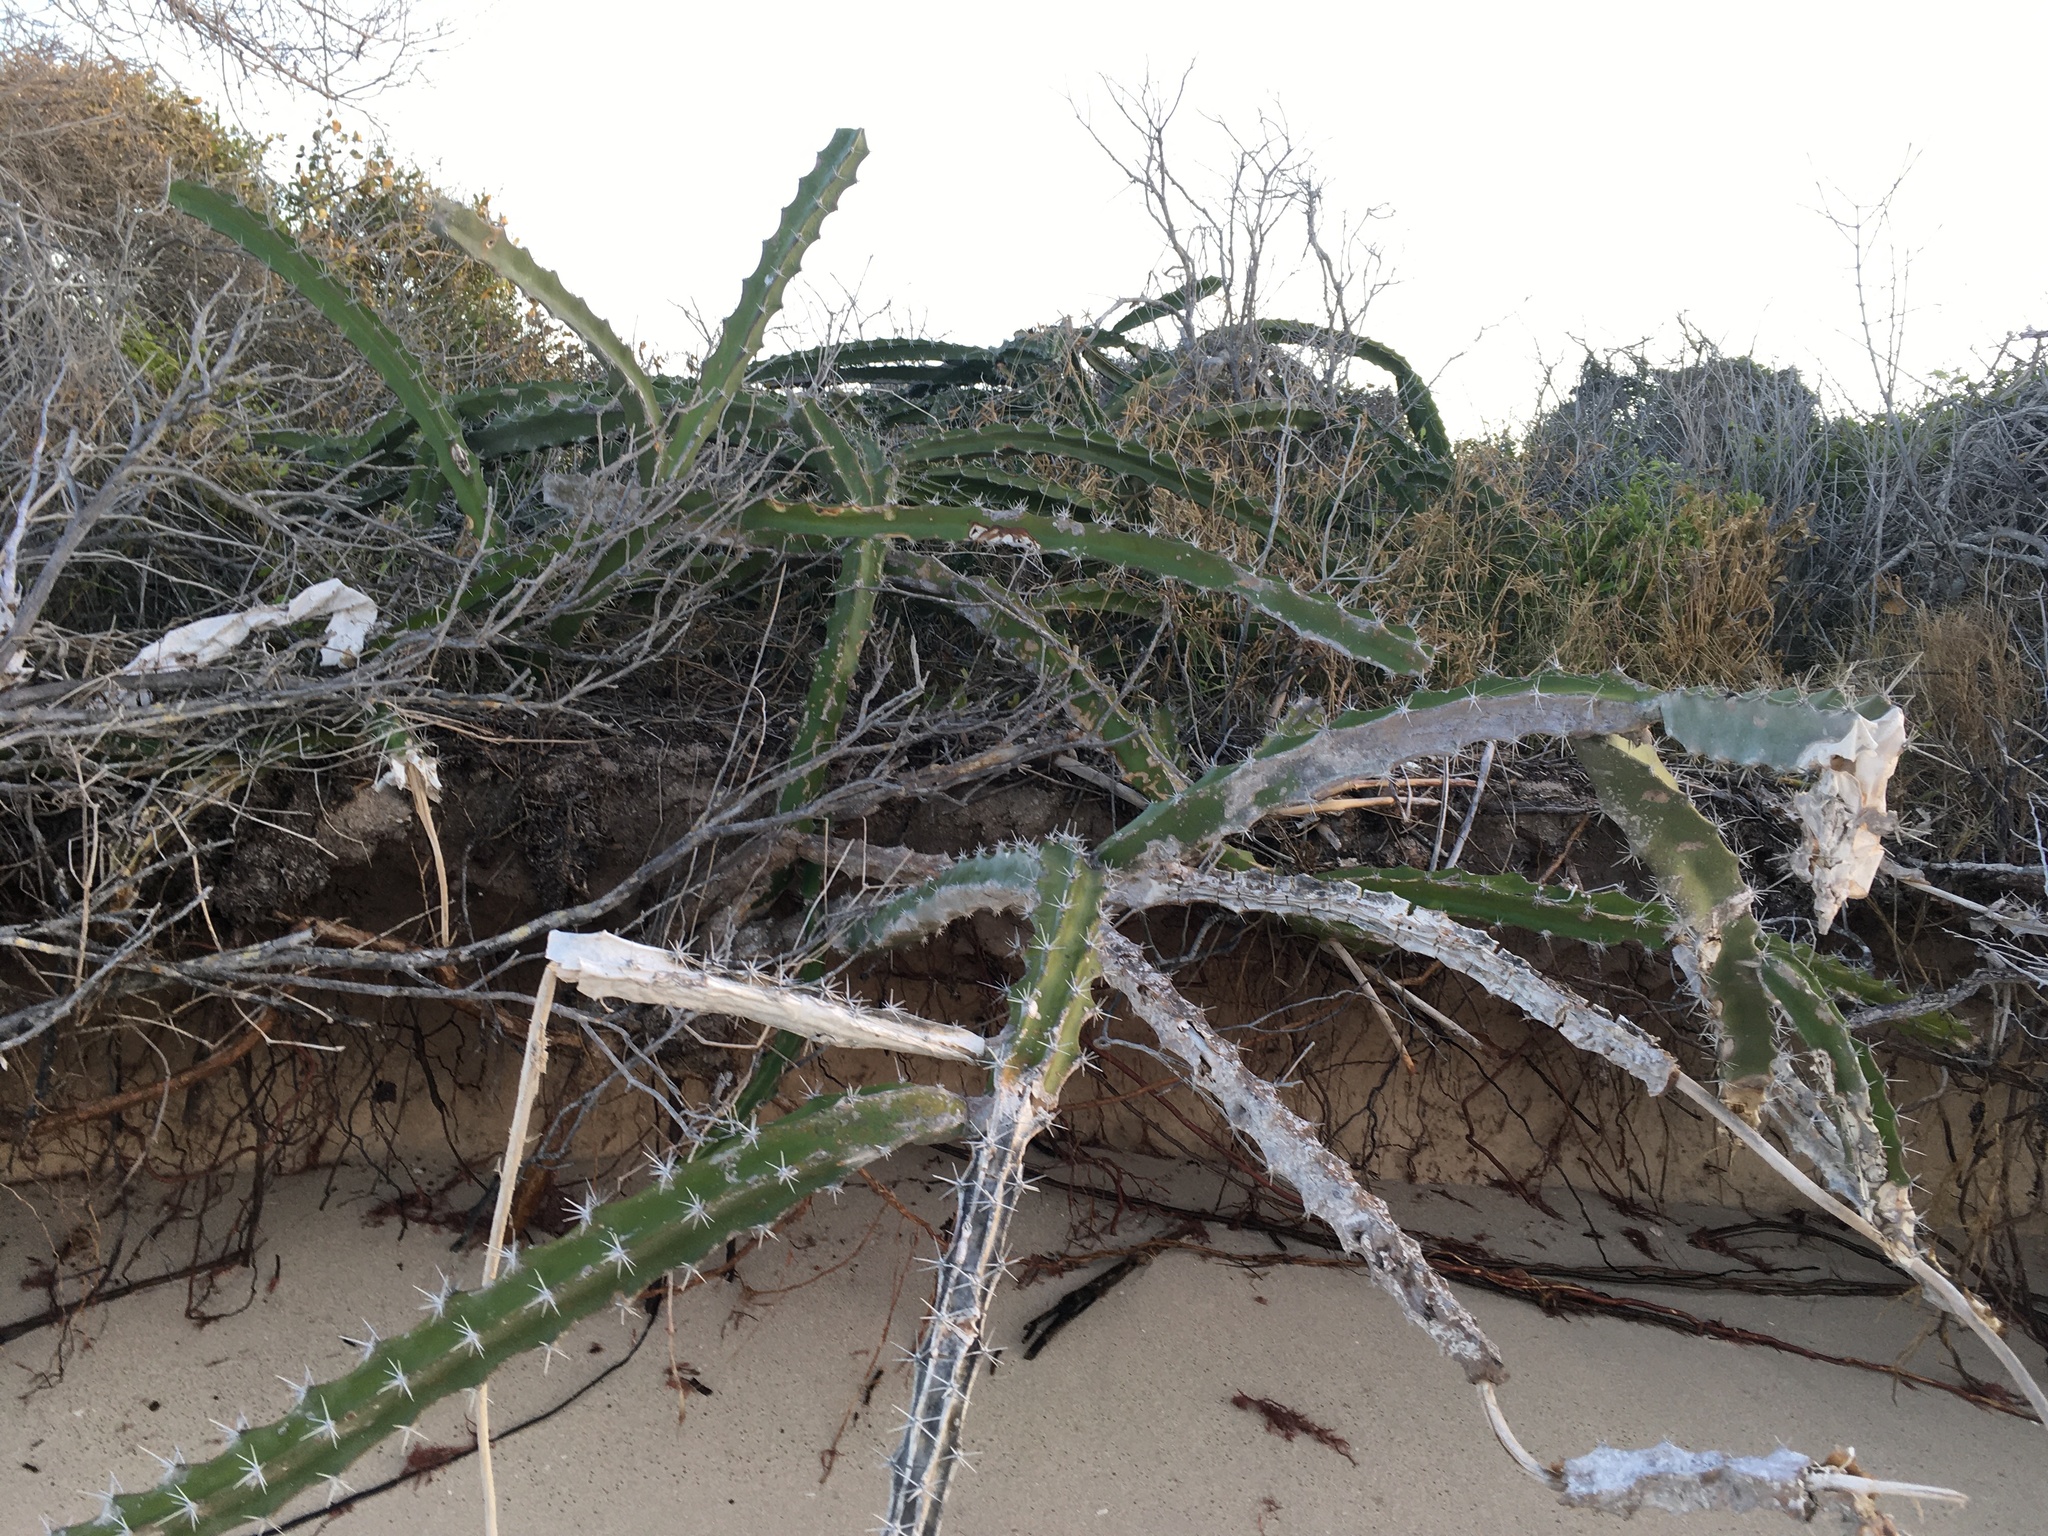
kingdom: Plantae
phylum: Tracheophyta
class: Magnoliopsida
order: Caryophyllales
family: Cactaceae
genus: Acanthocereus
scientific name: Acanthocereus tetragonus
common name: Triangle cactus
